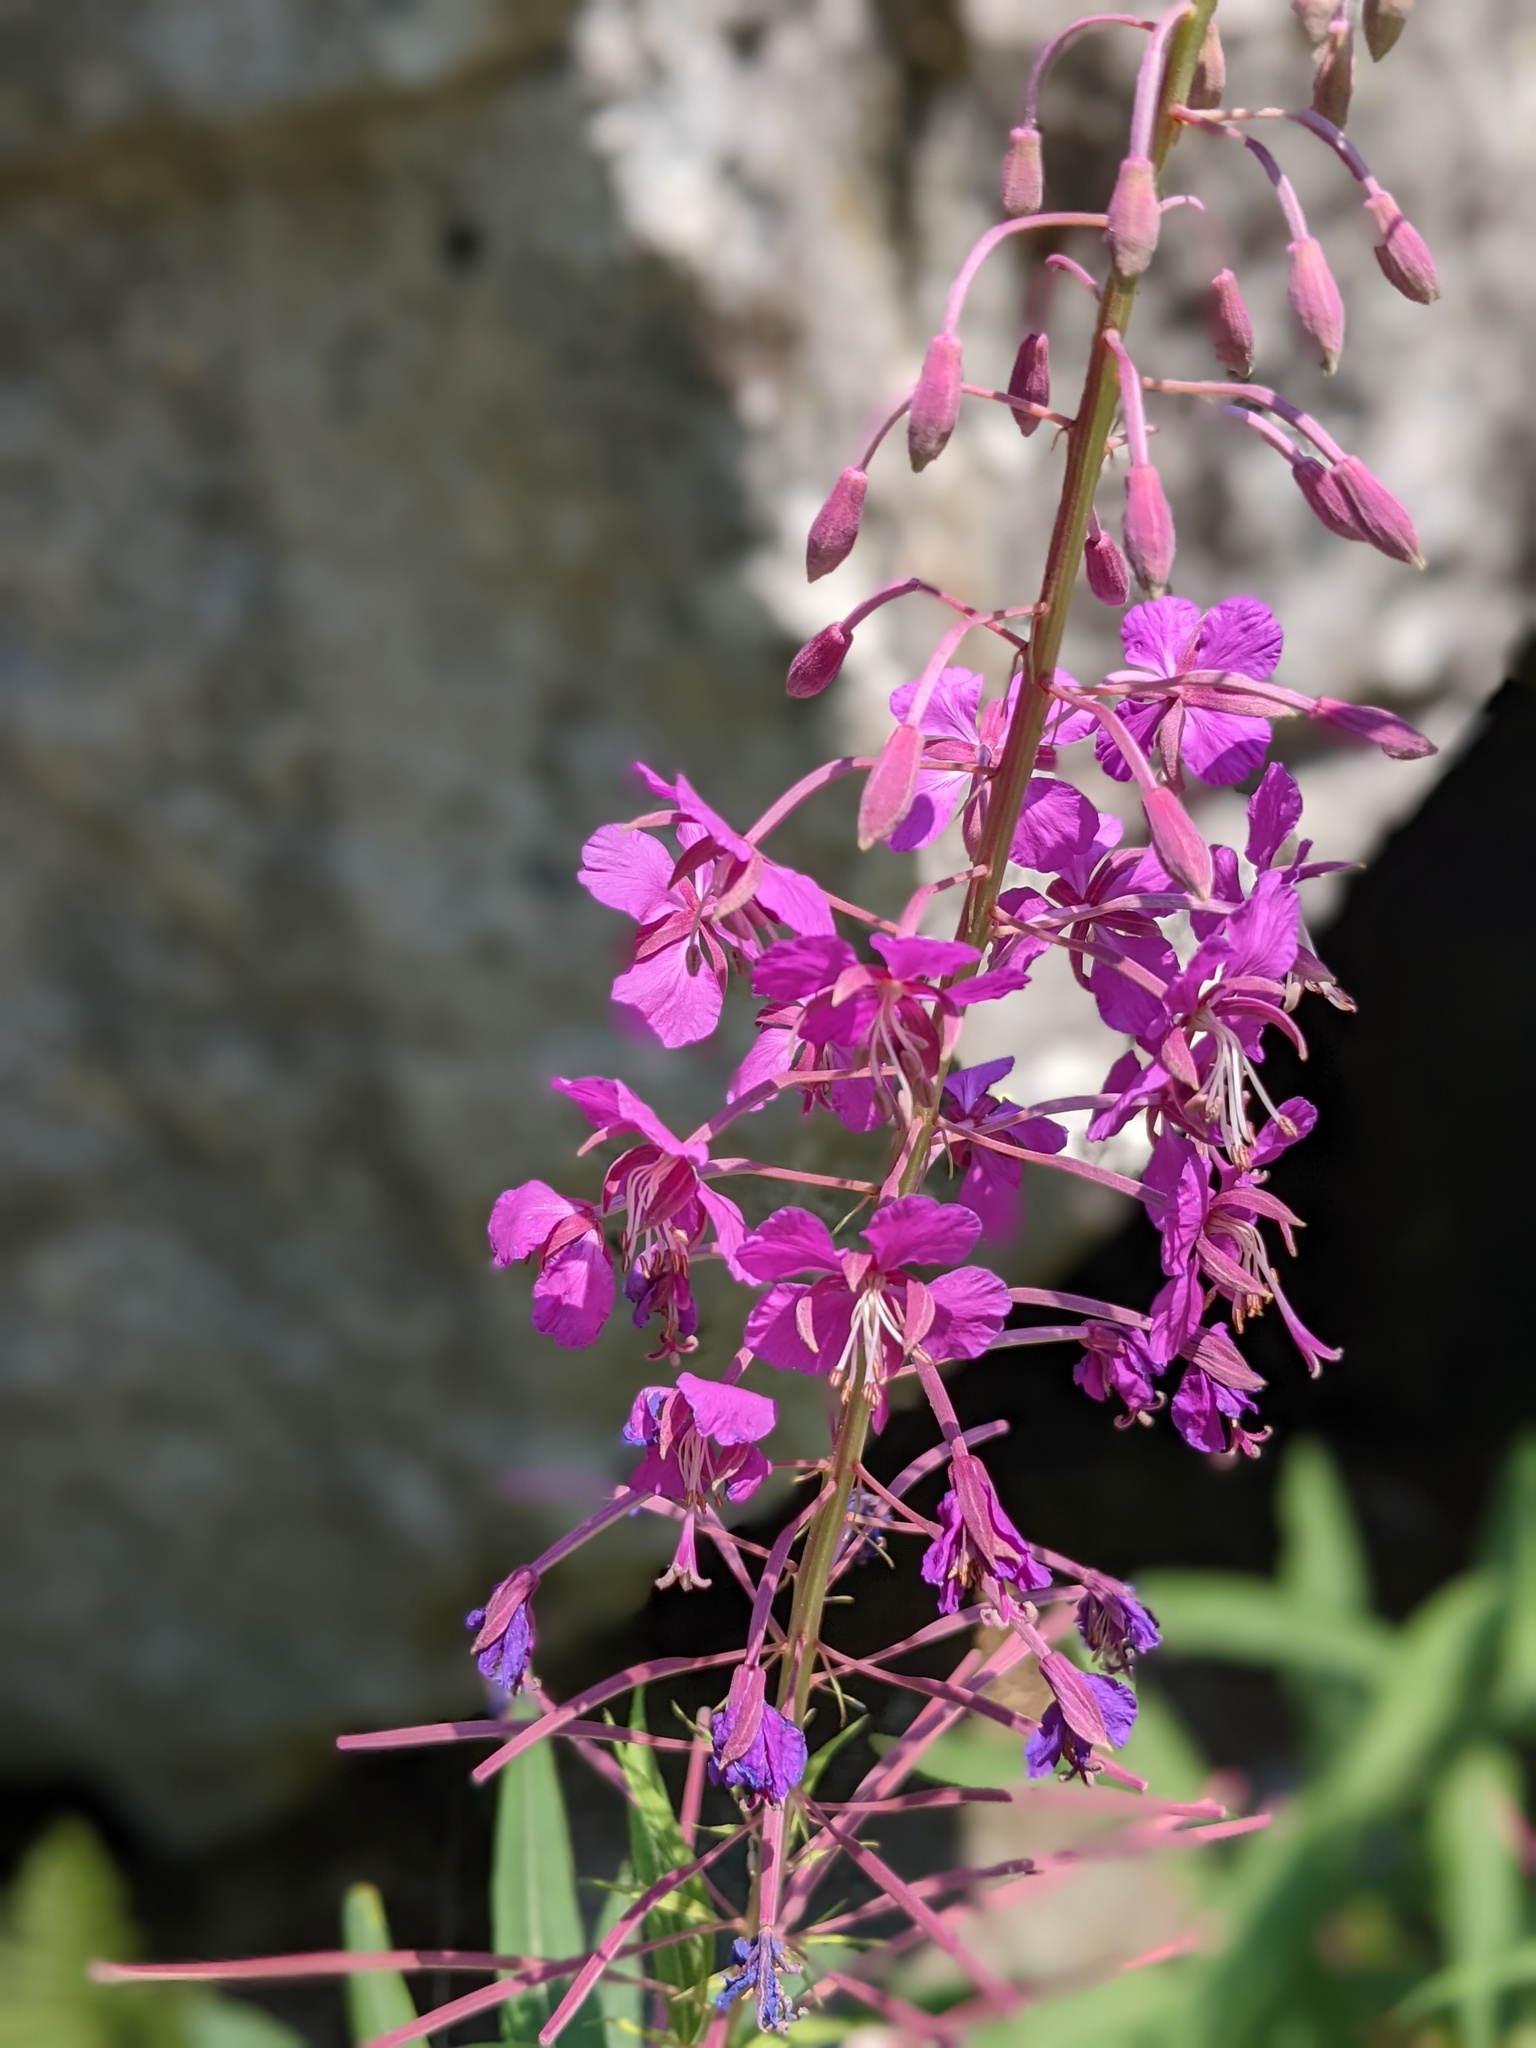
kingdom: Plantae
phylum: Tracheophyta
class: Magnoliopsida
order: Myrtales
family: Onagraceae
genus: Chamaenerion
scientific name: Chamaenerion angustifolium
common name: Fireweed
